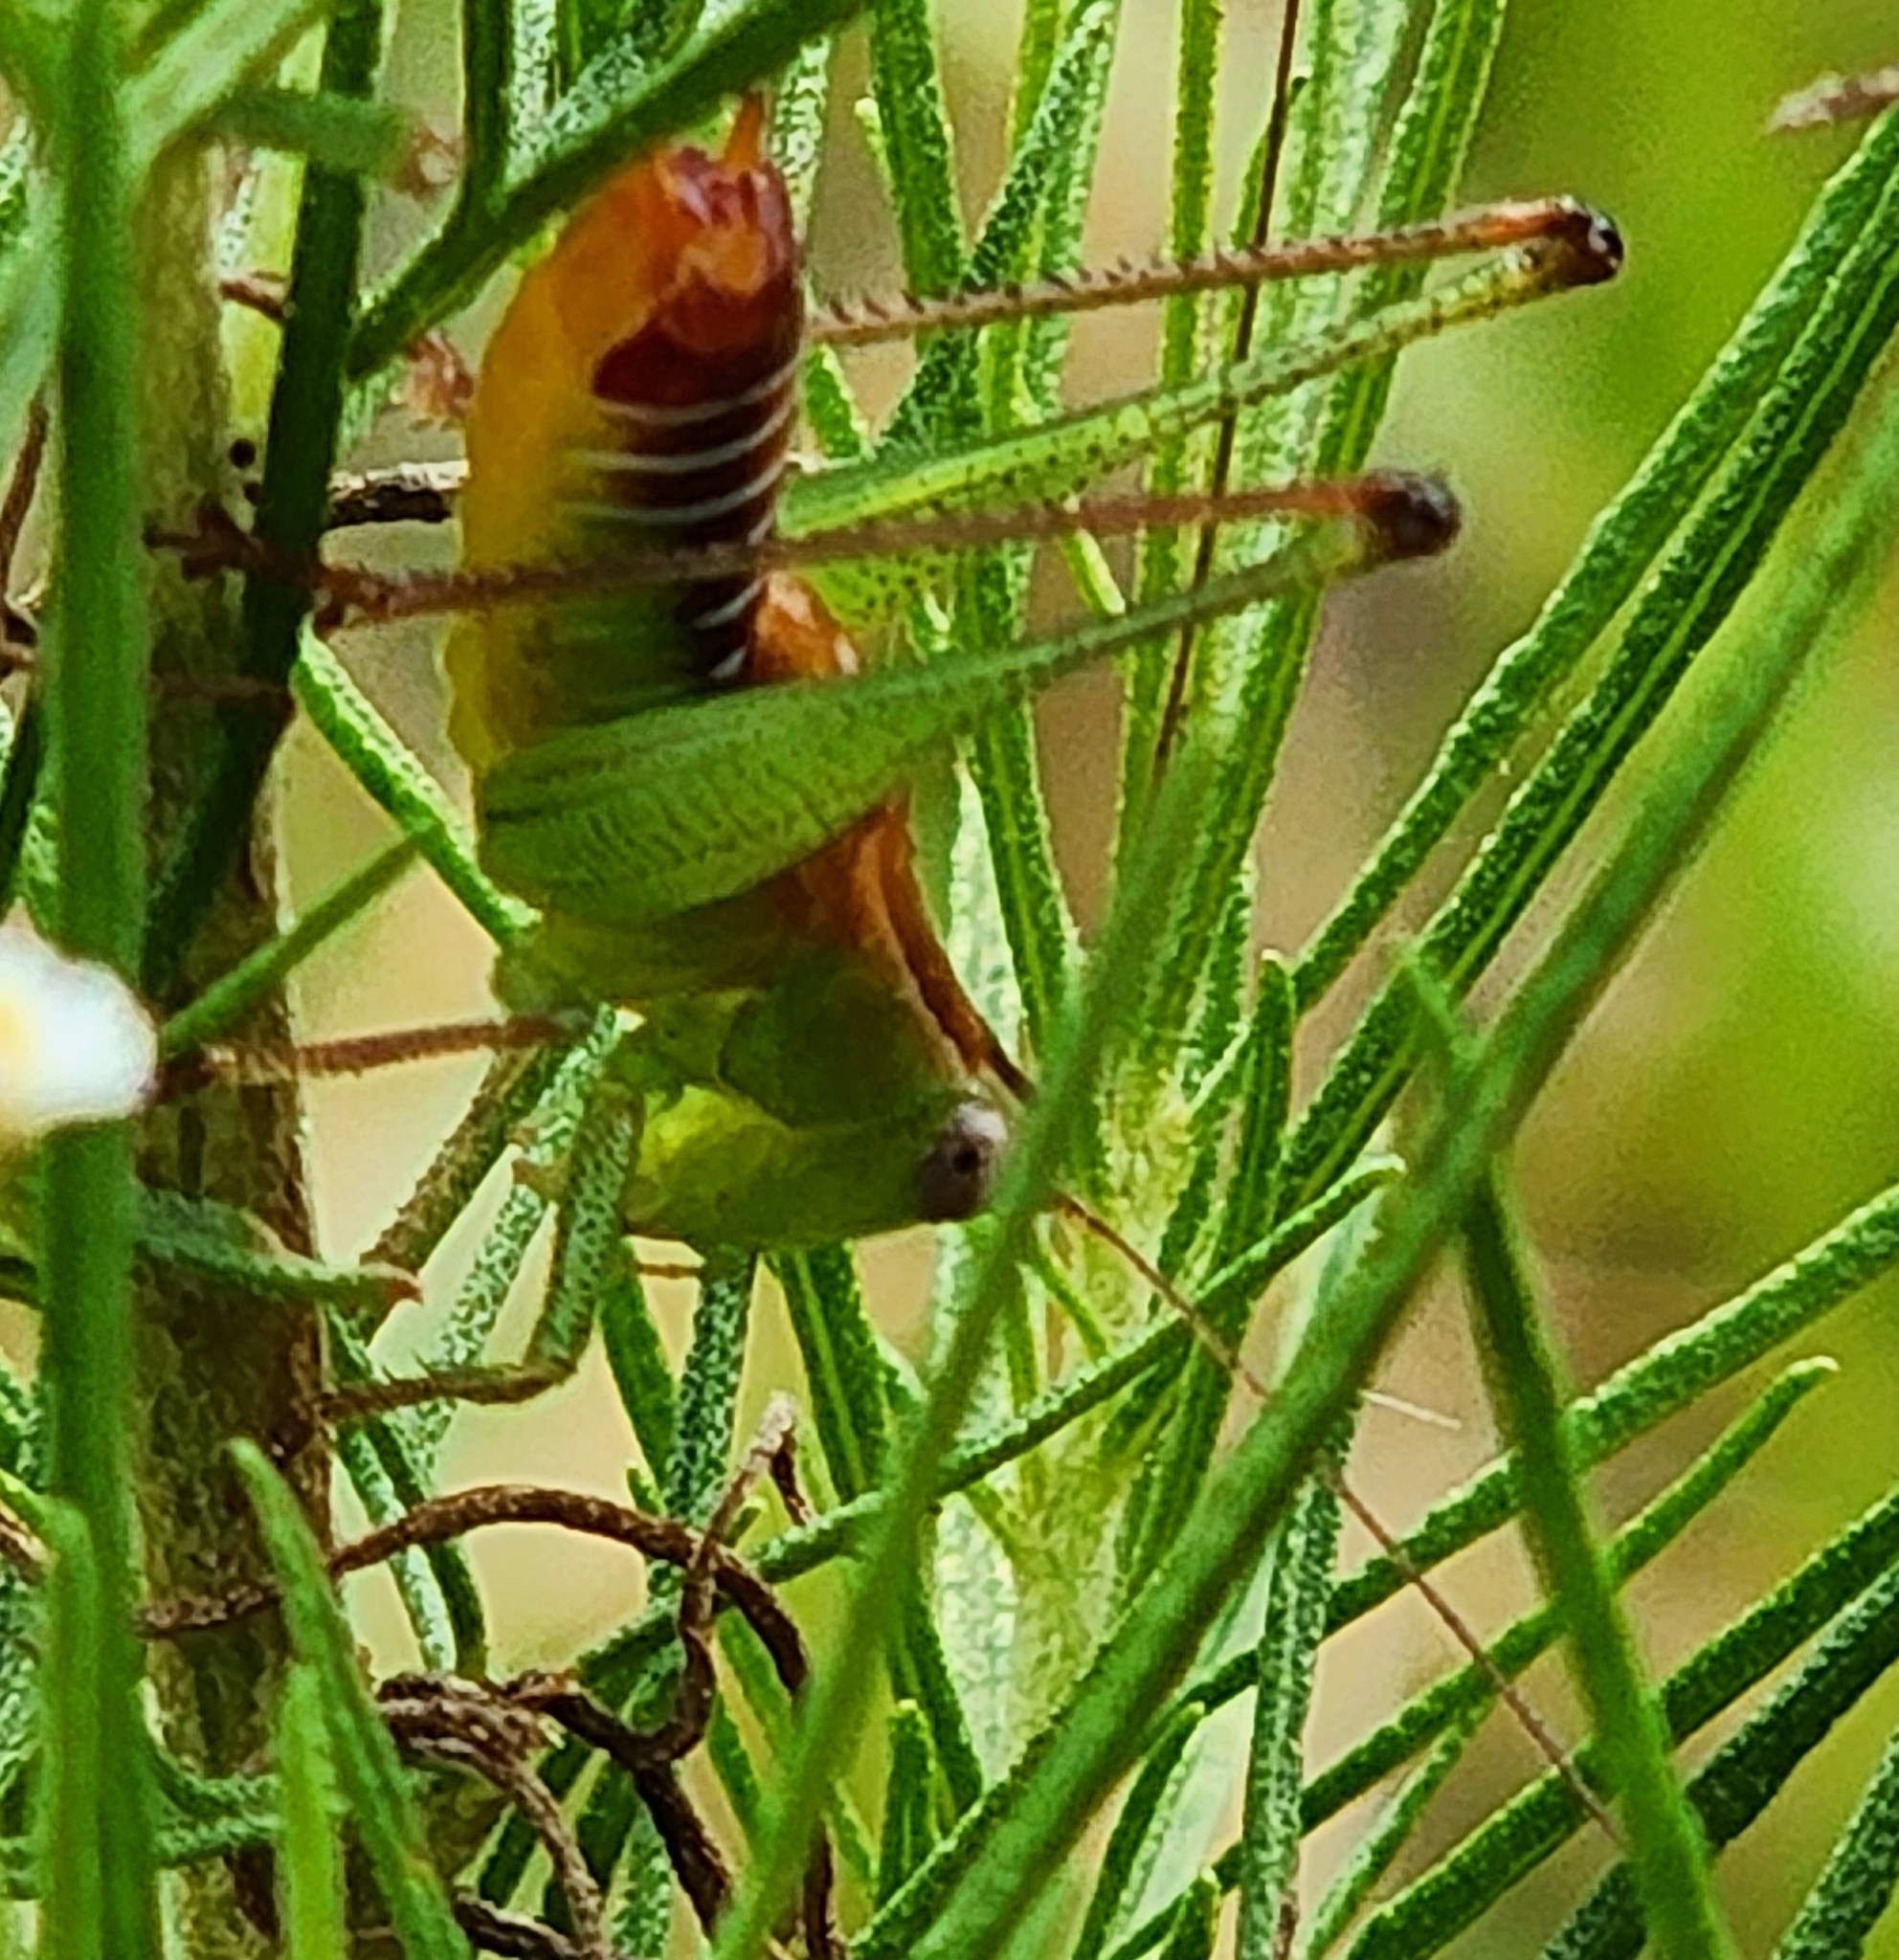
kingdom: Animalia
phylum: Arthropoda
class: Insecta
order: Orthoptera
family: Tettigoniidae
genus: Odontoxiphidium
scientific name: Odontoxiphidium apterum
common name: Wingless meadow katydid
